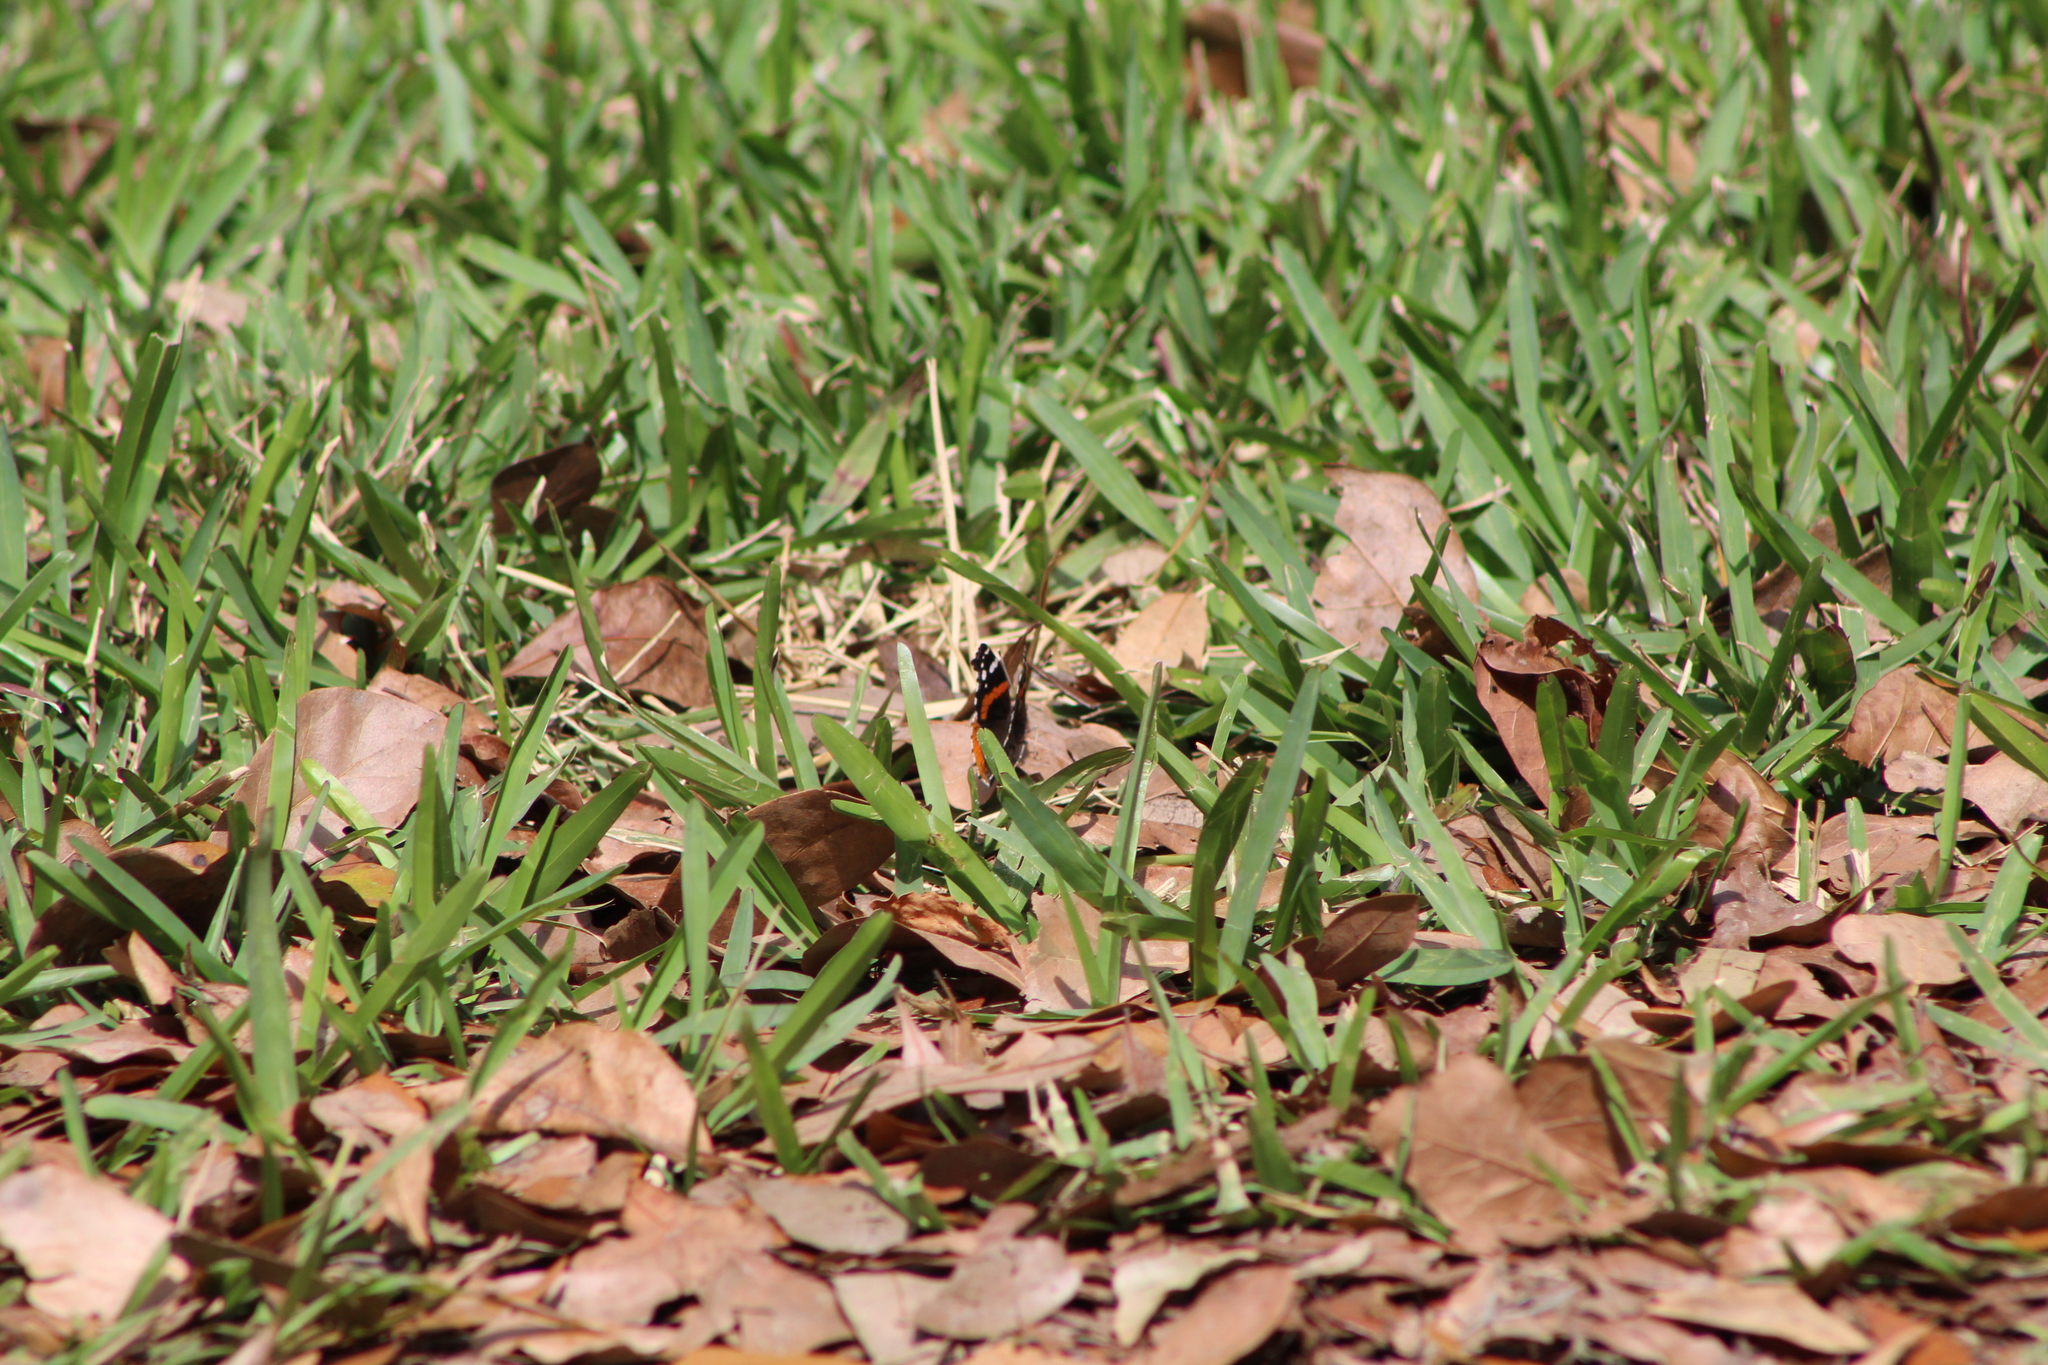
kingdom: Animalia
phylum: Arthropoda
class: Insecta
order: Lepidoptera
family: Nymphalidae
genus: Vanessa
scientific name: Vanessa atalanta
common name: Red admiral
